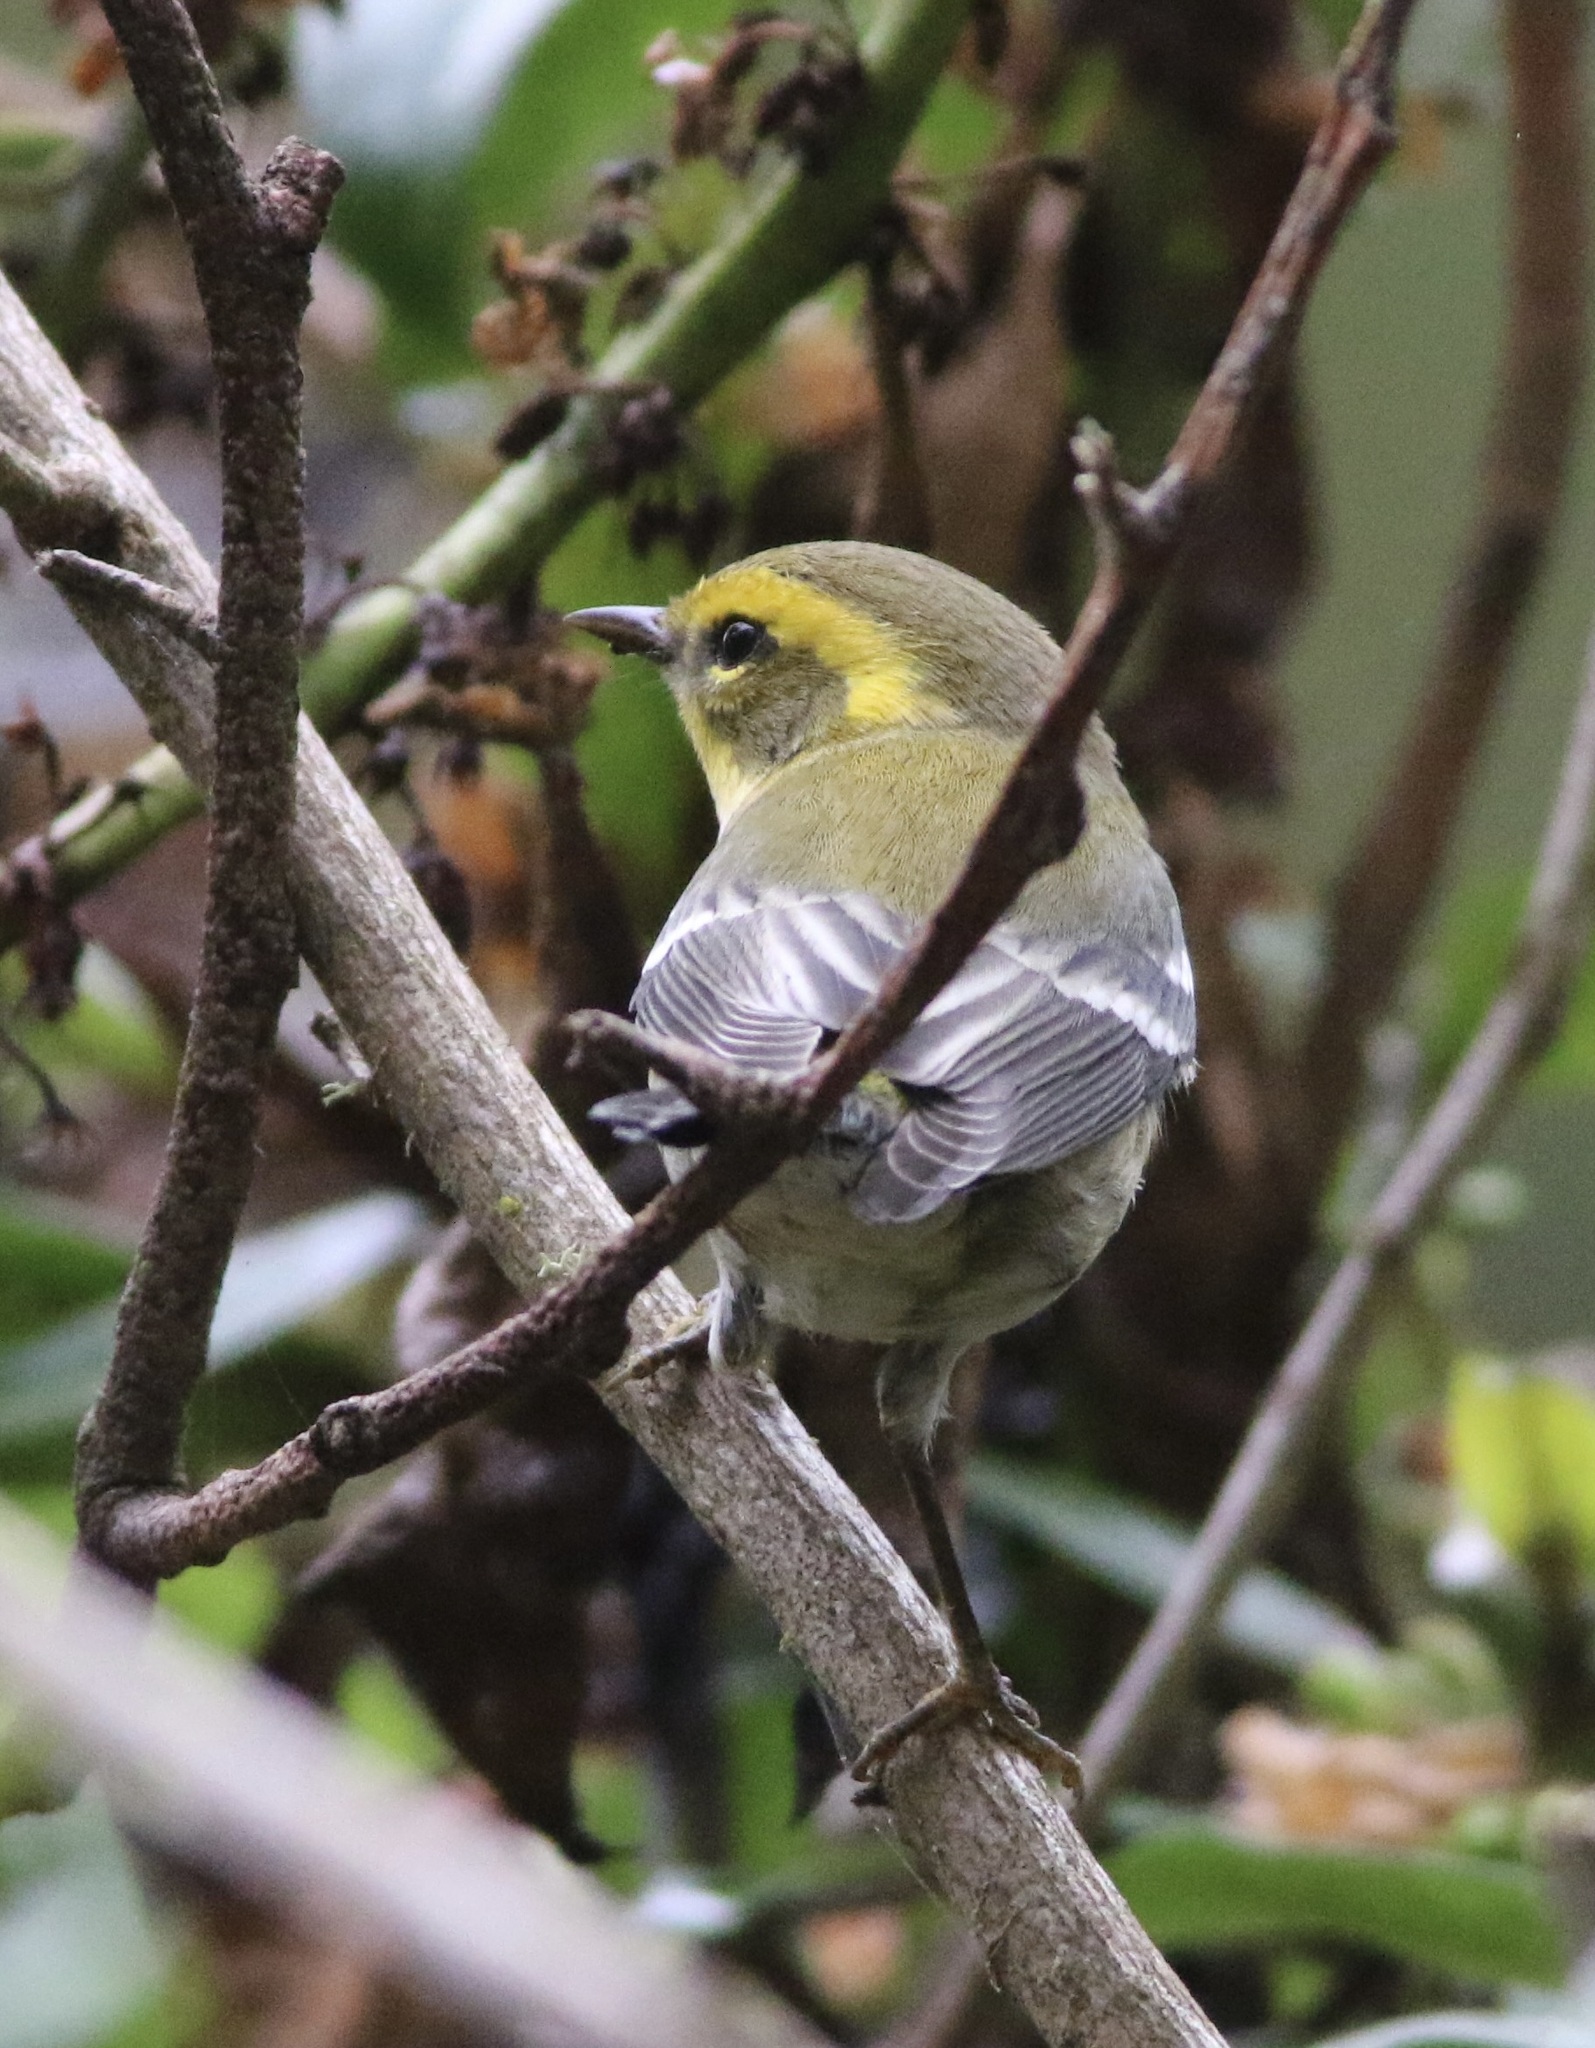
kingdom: Animalia
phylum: Chordata
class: Aves
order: Passeriformes
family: Parulidae
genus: Setophaga
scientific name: Setophaga townsendi
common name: Townsend's warbler
